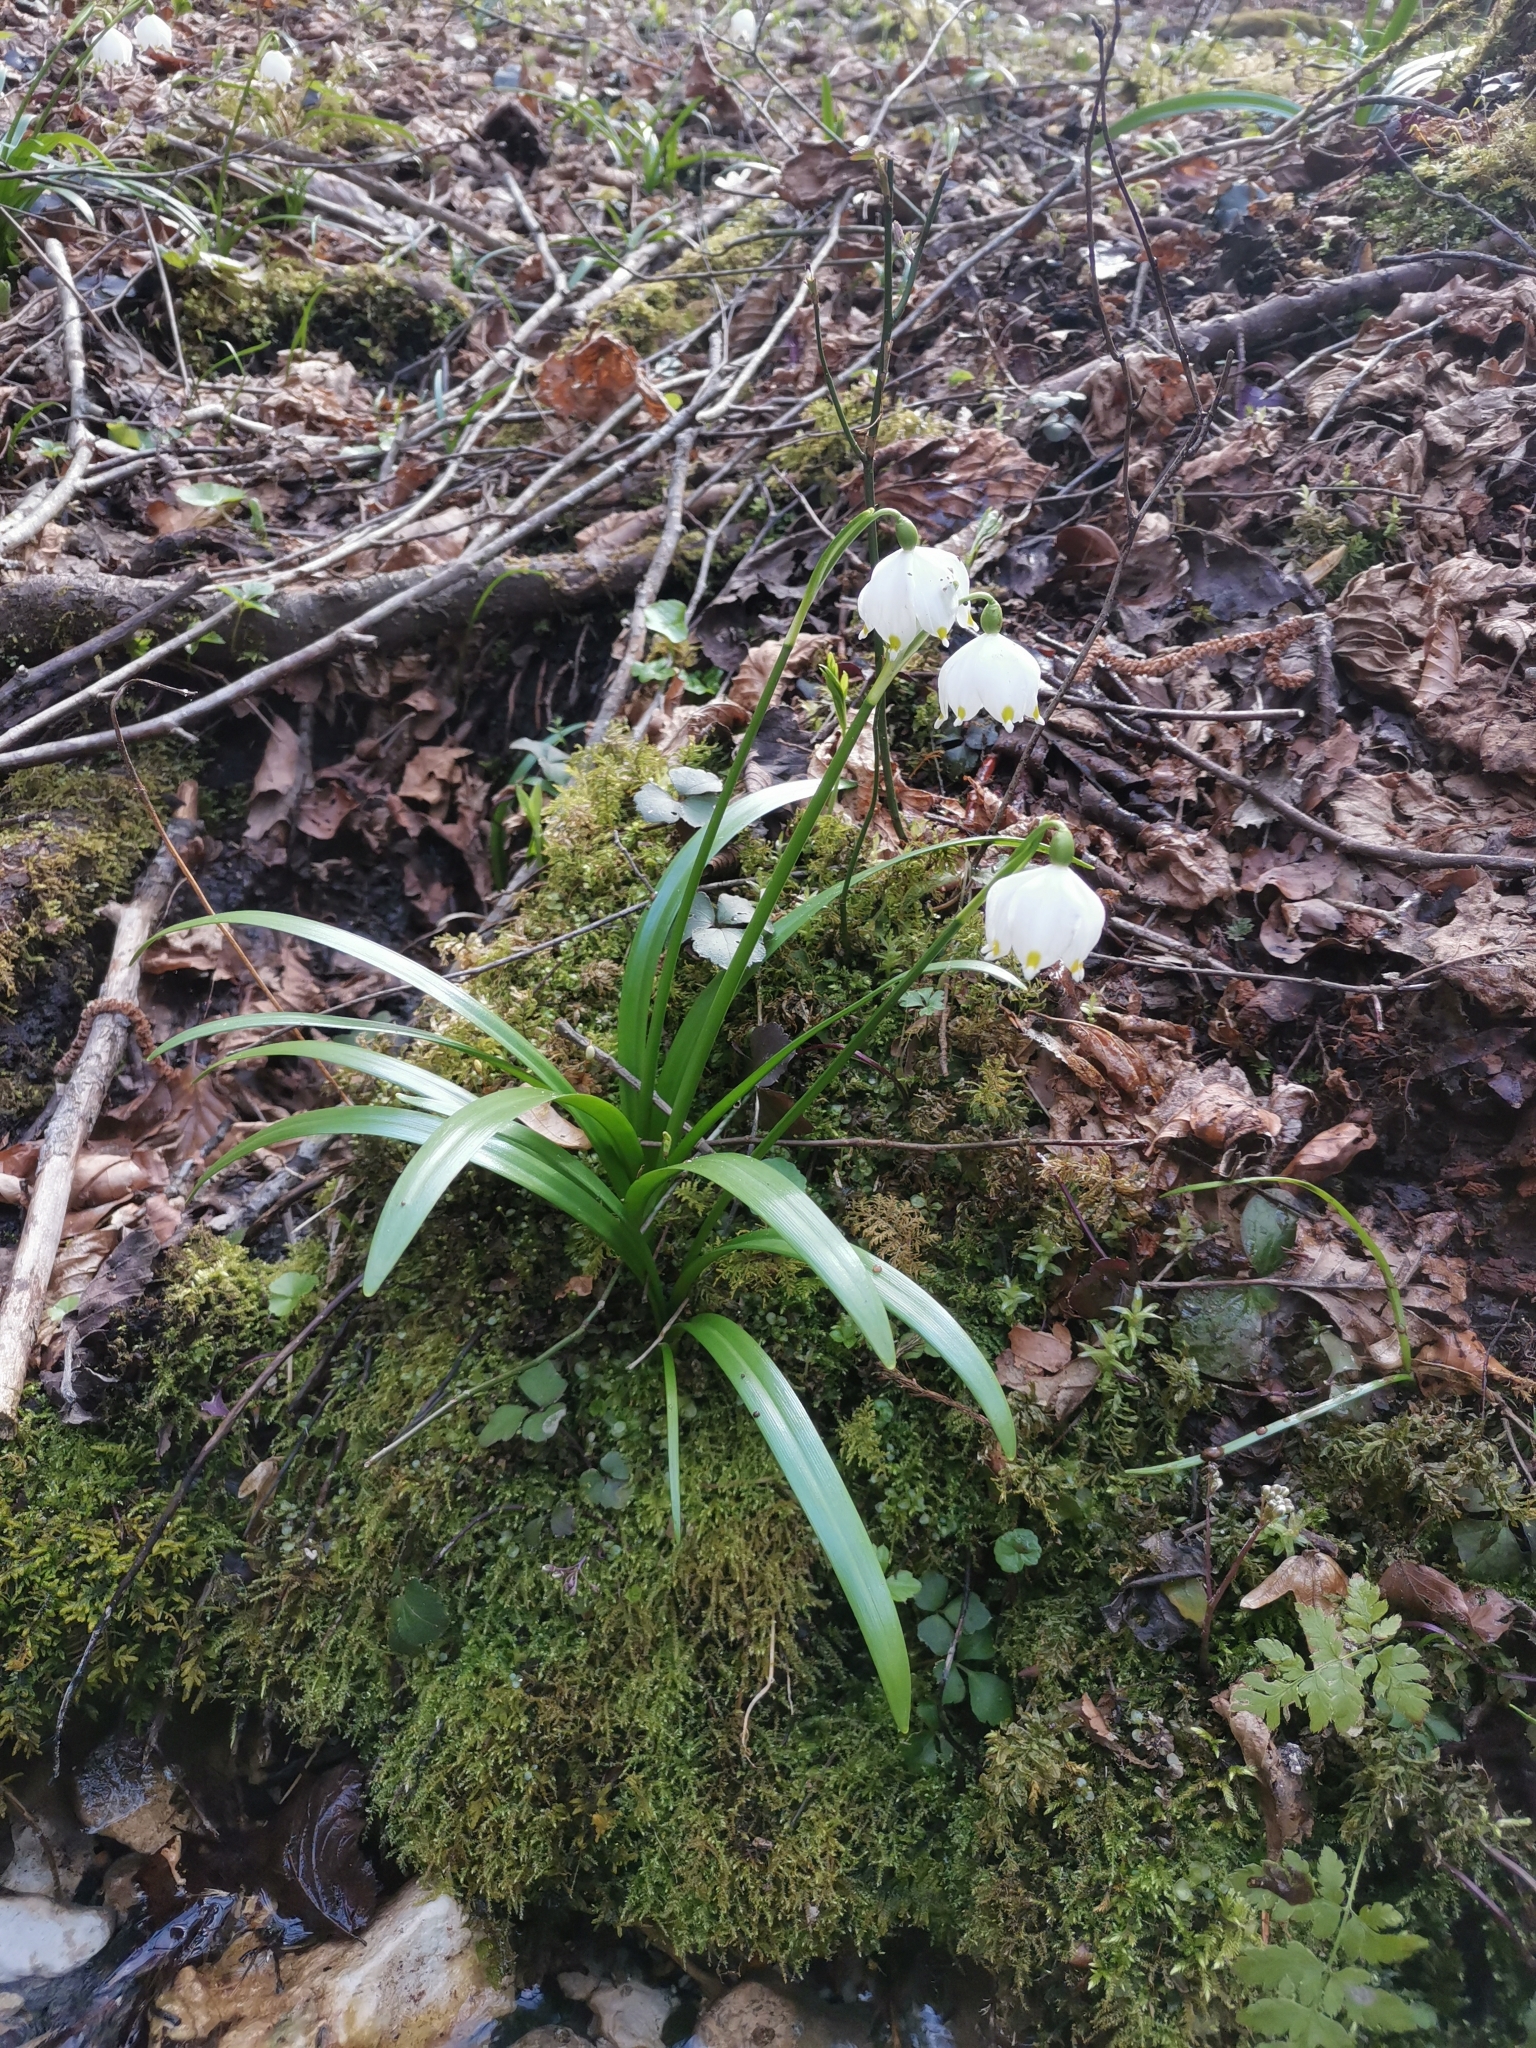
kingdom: Plantae
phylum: Tracheophyta
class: Liliopsida
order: Asparagales
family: Amaryllidaceae
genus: Leucojum
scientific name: Leucojum vernum
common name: Spring snowflake
